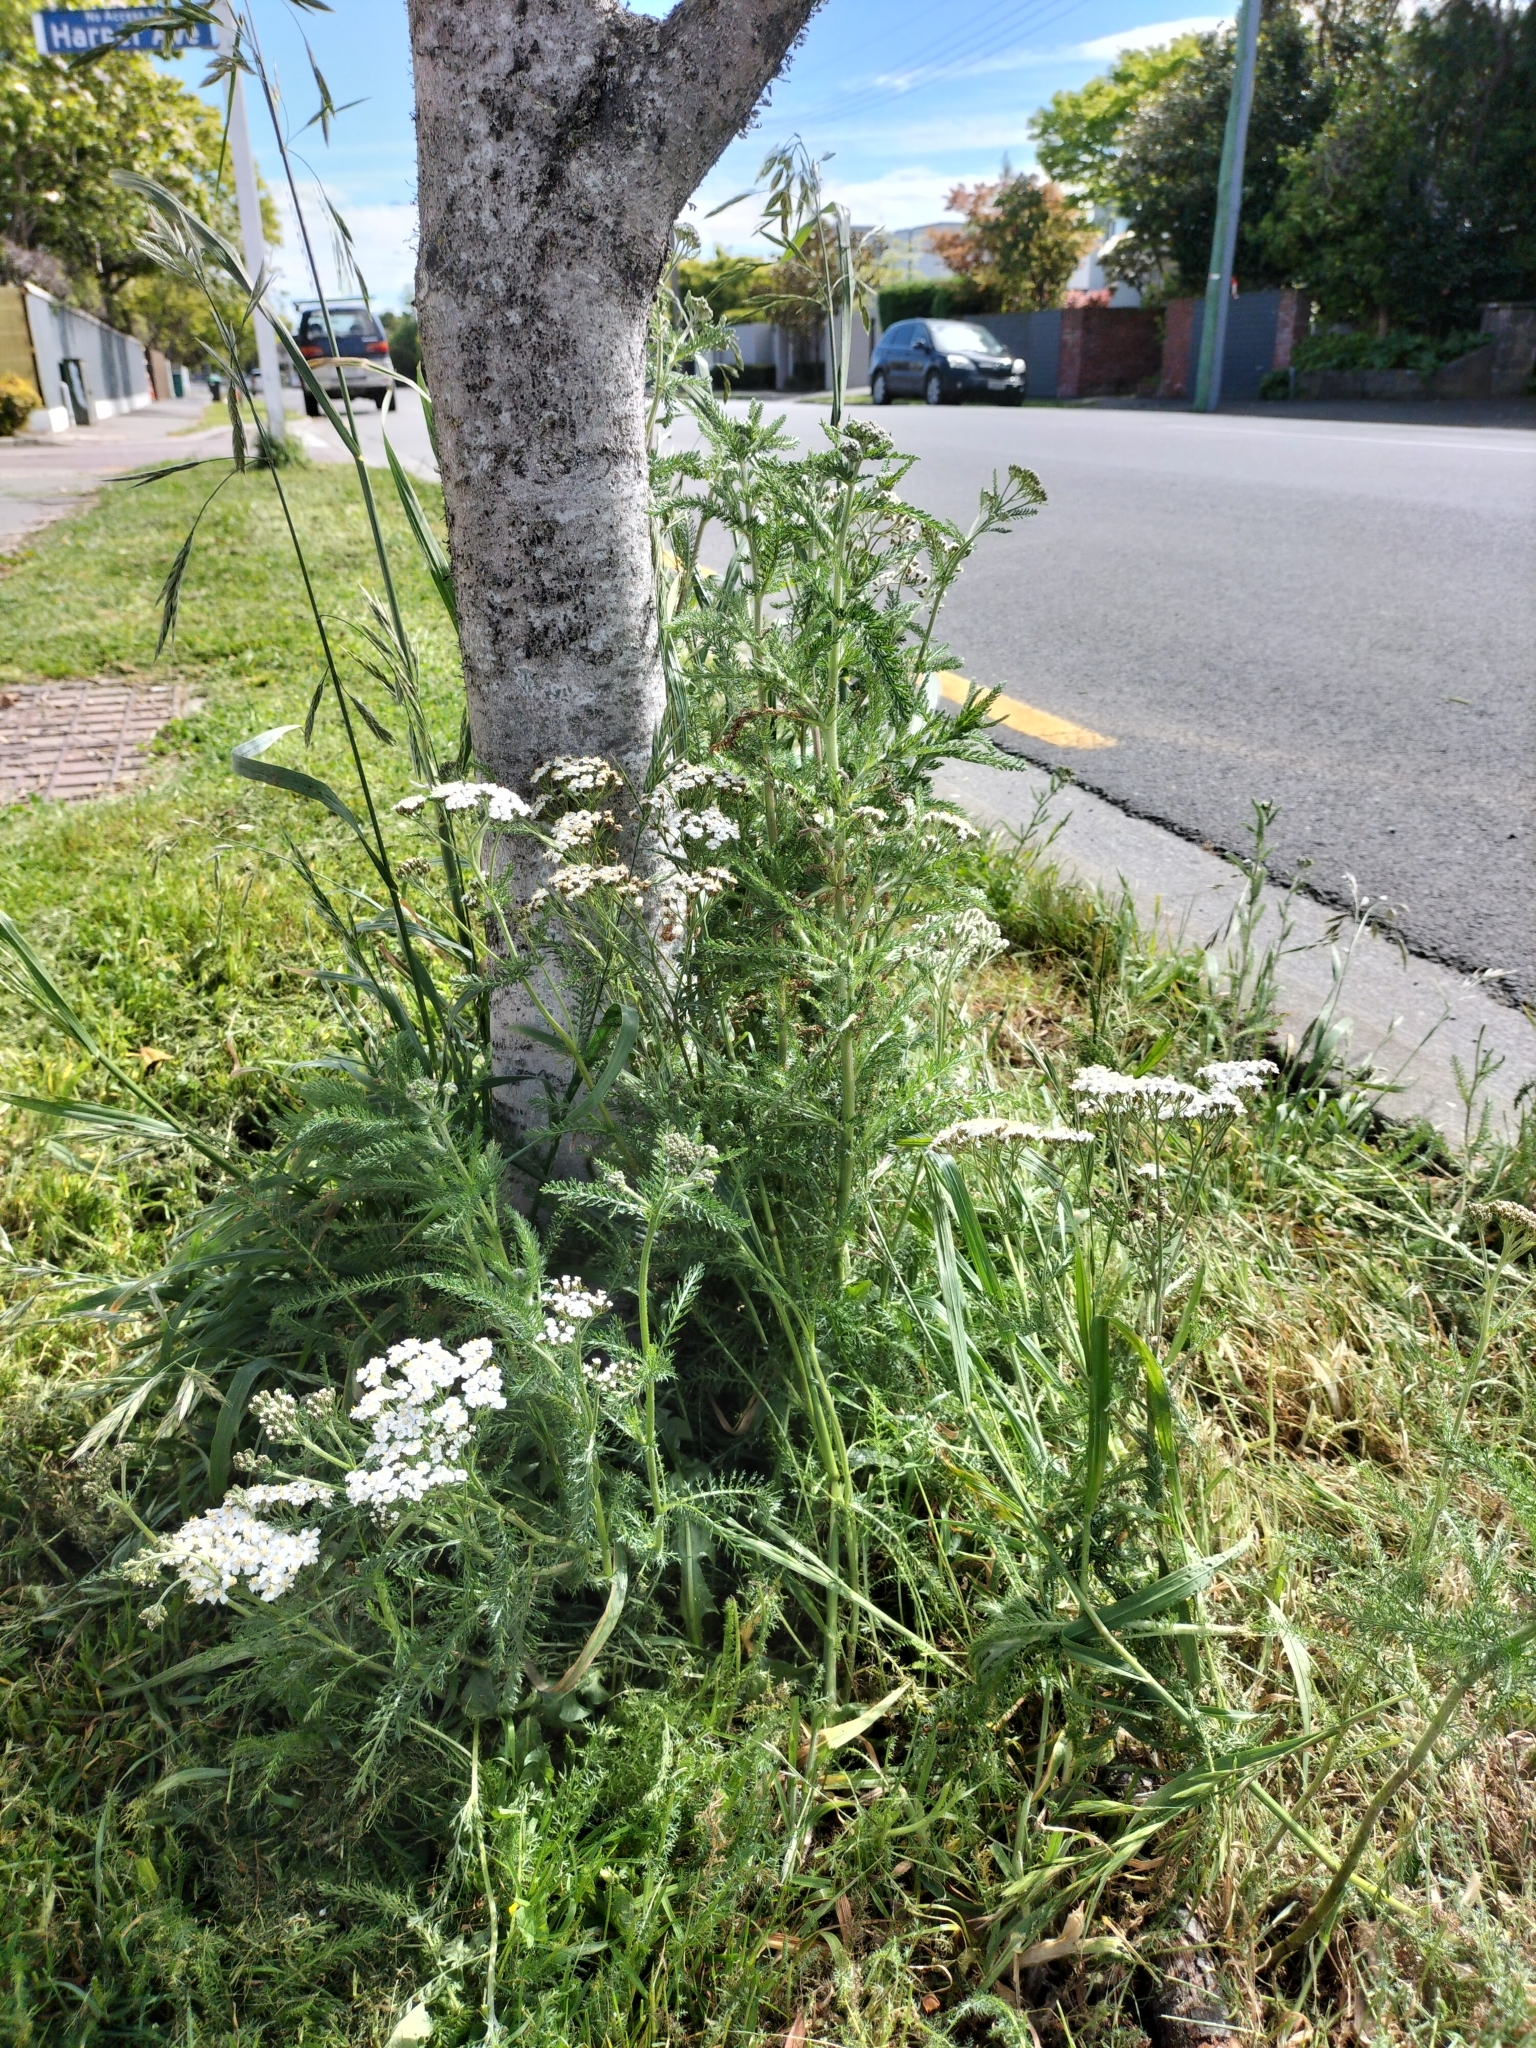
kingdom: Plantae
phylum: Tracheophyta
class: Magnoliopsida
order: Asterales
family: Asteraceae
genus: Achillea
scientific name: Achillea millefolium
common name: Yarrow
